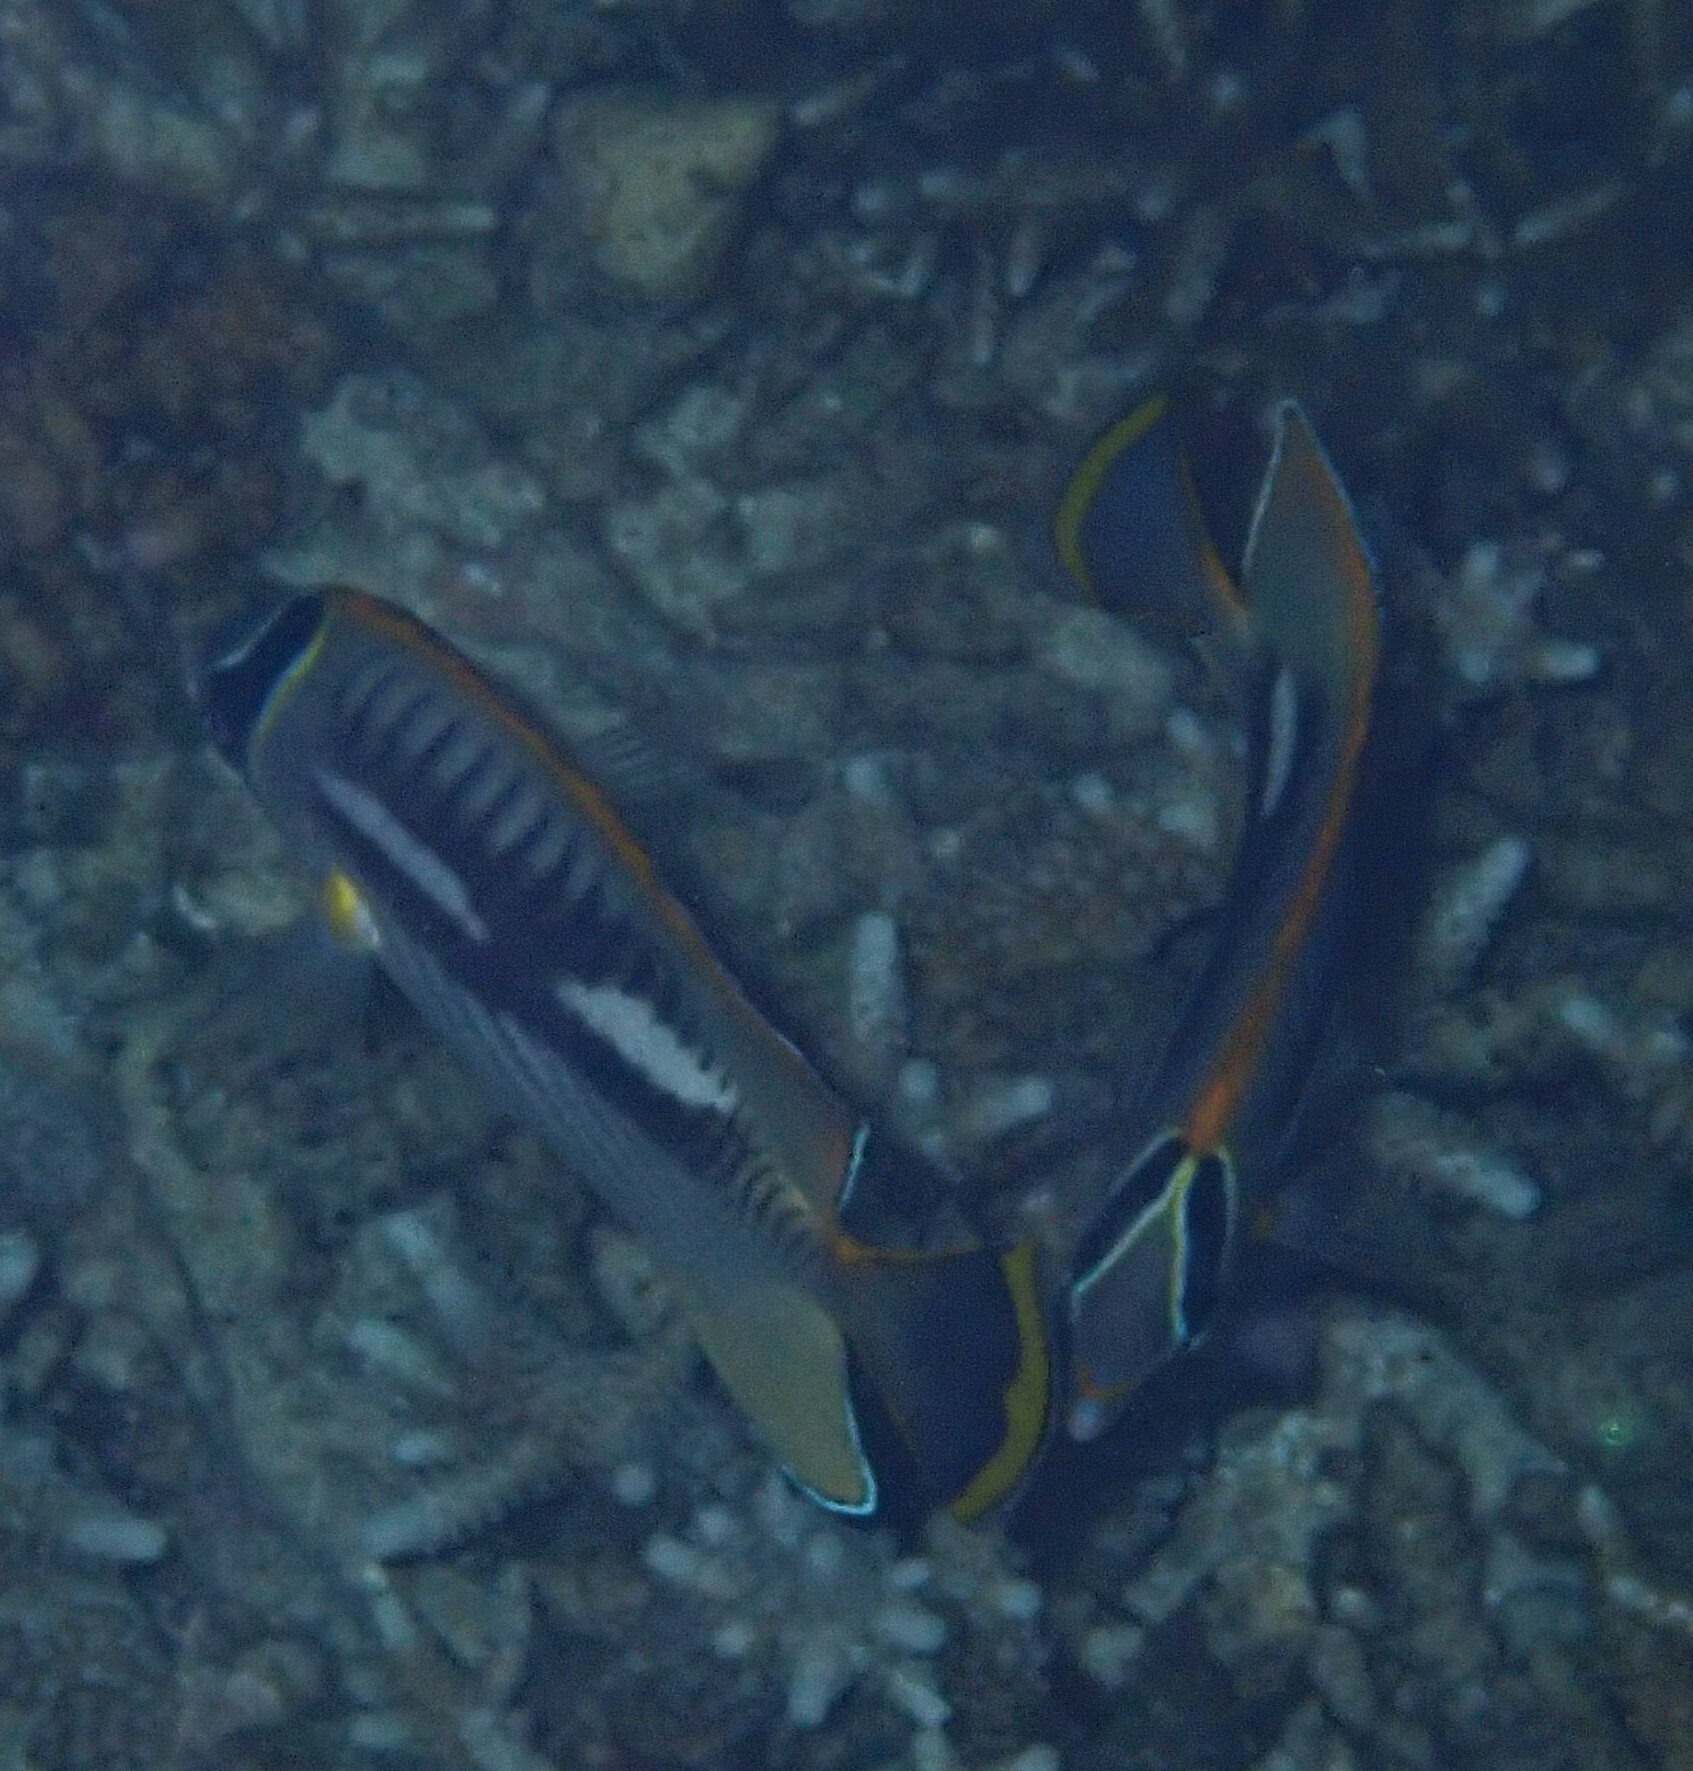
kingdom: Animalia
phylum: Chordata
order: Perciformes
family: Chaetodontidae
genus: Chaetodon
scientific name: Chaetodon trifascialis
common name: Chevroned butterflyfish
